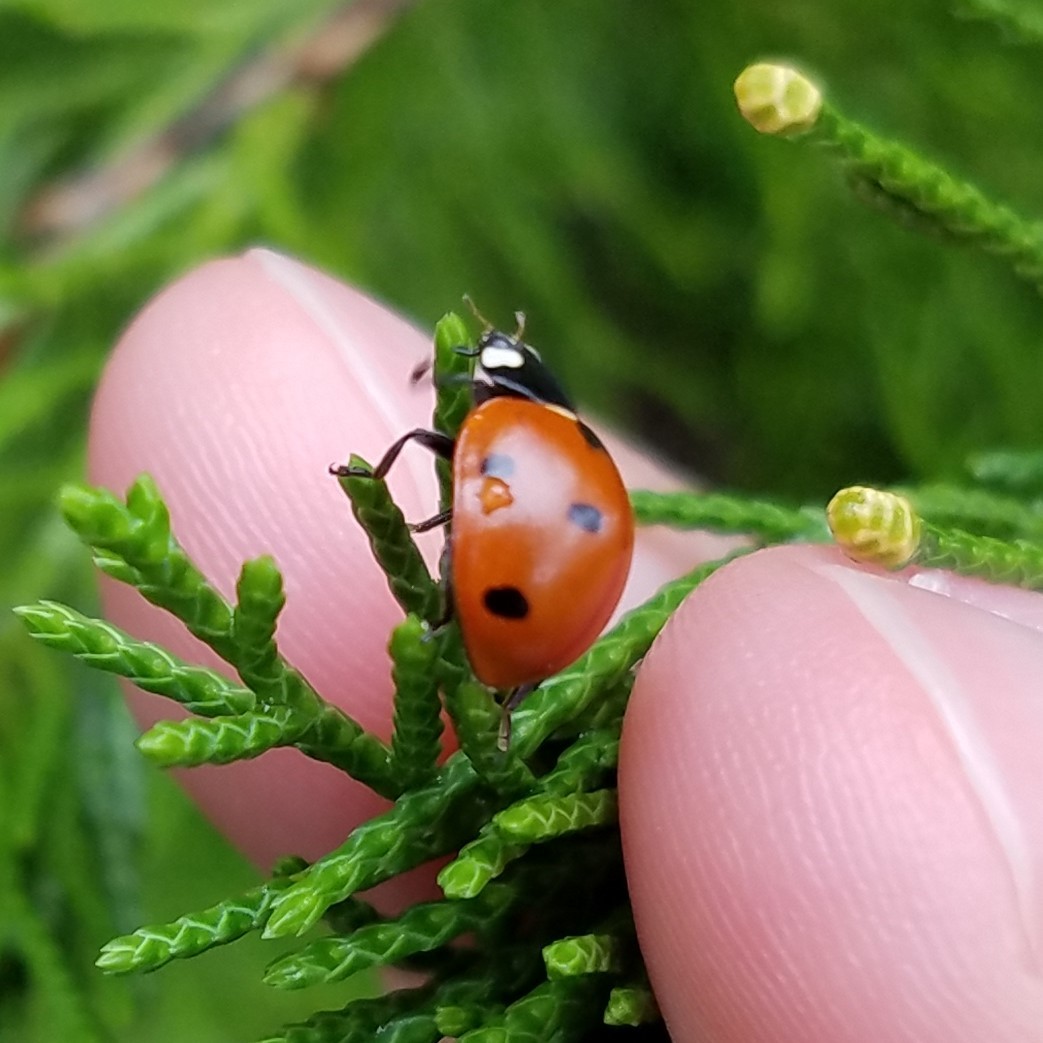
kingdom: Animalia
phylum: Arthropoda
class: Insecta
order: Coleoptera
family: Coccinellidae
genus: Coccinella
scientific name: Coccinella septempunctata
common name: Sevenspotted lady beetle
